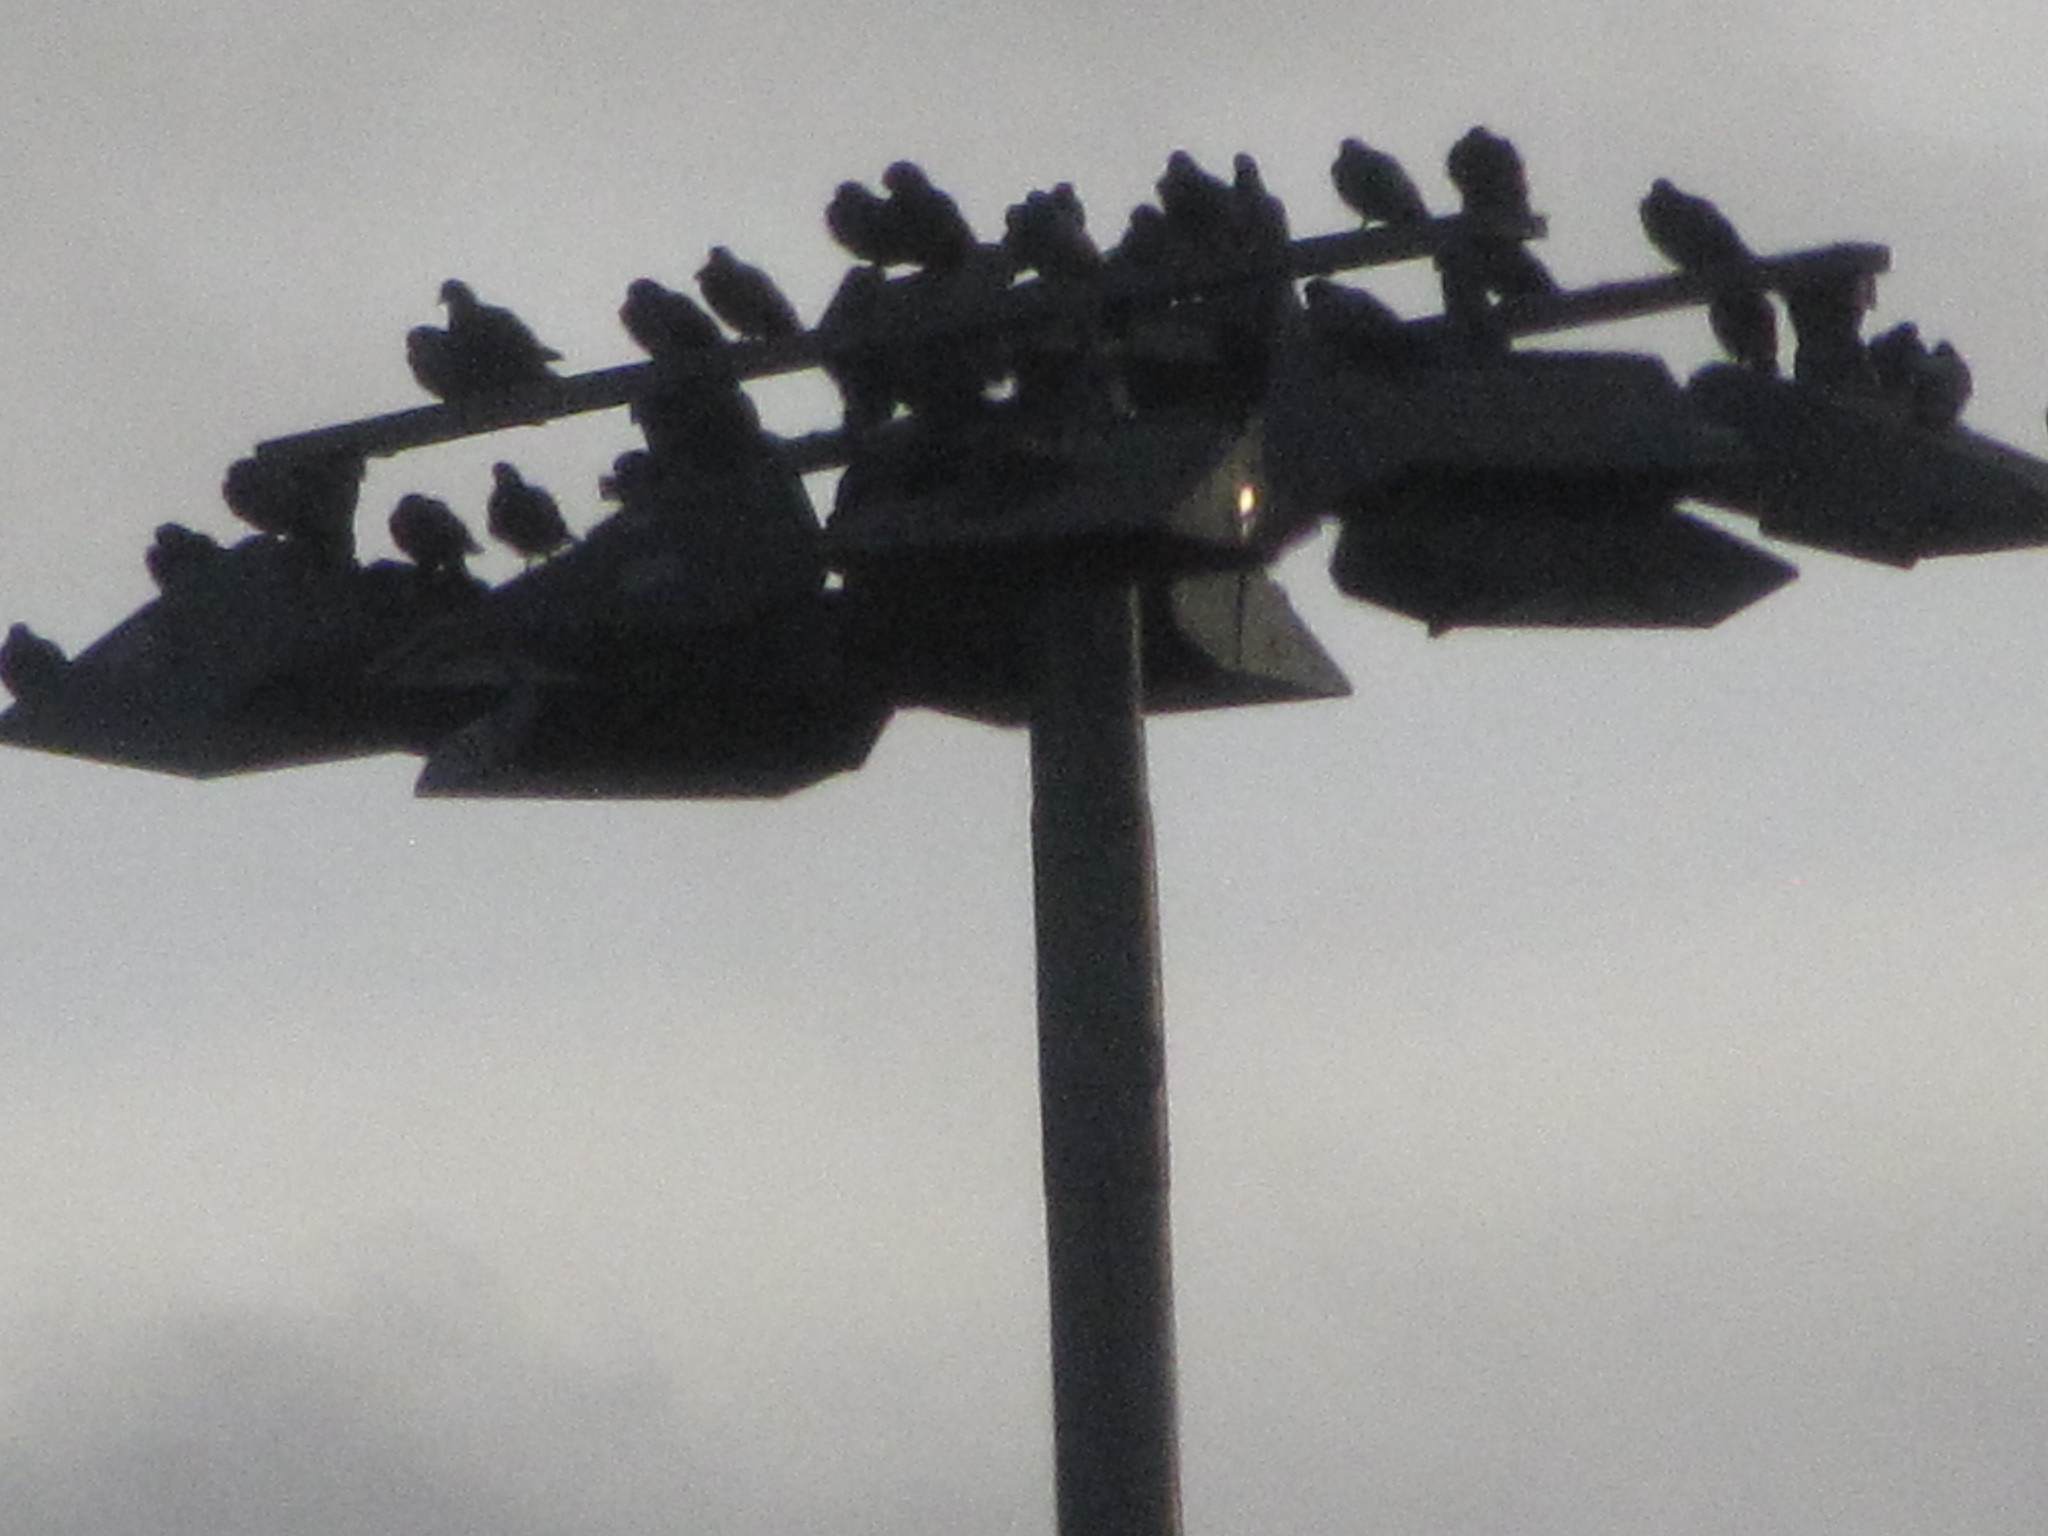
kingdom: Animalia
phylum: Chordata
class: Aves
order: Columbiformes
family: Columbidae
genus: Columba
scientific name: Columba livia
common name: Rock pigeon
